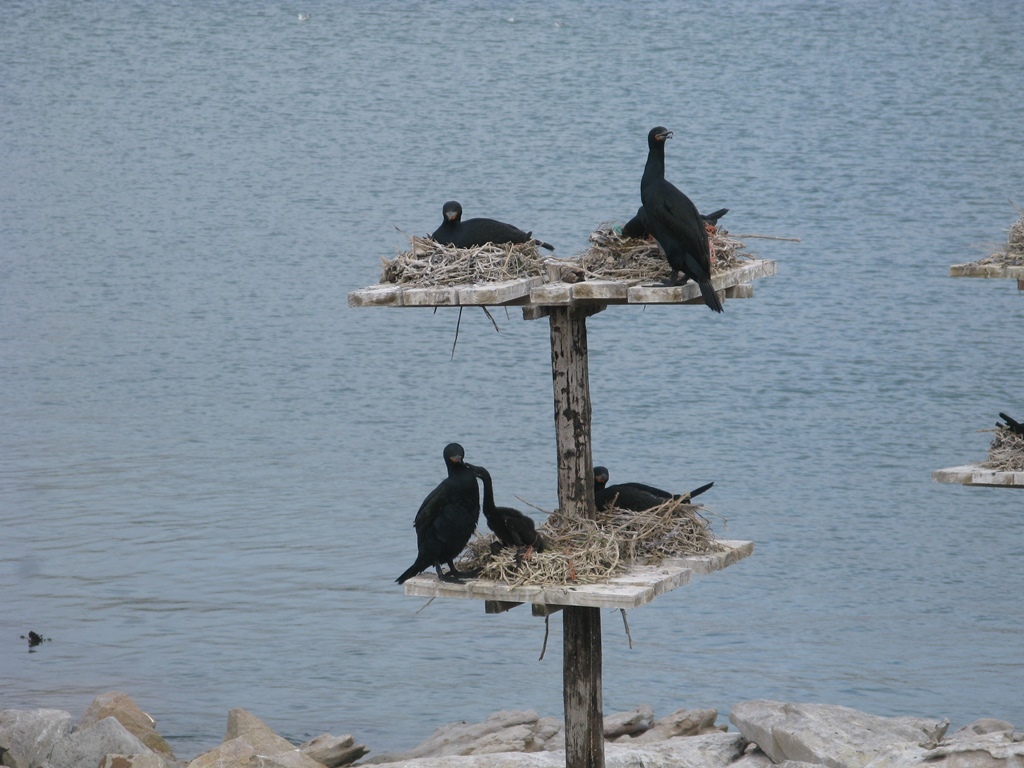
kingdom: Animalia
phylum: Chordata
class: Aves
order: Suliformes
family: Phalacrocoracidae
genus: Phalacrocorax
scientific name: Phalacrocorax capensis
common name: Cape cormorant
